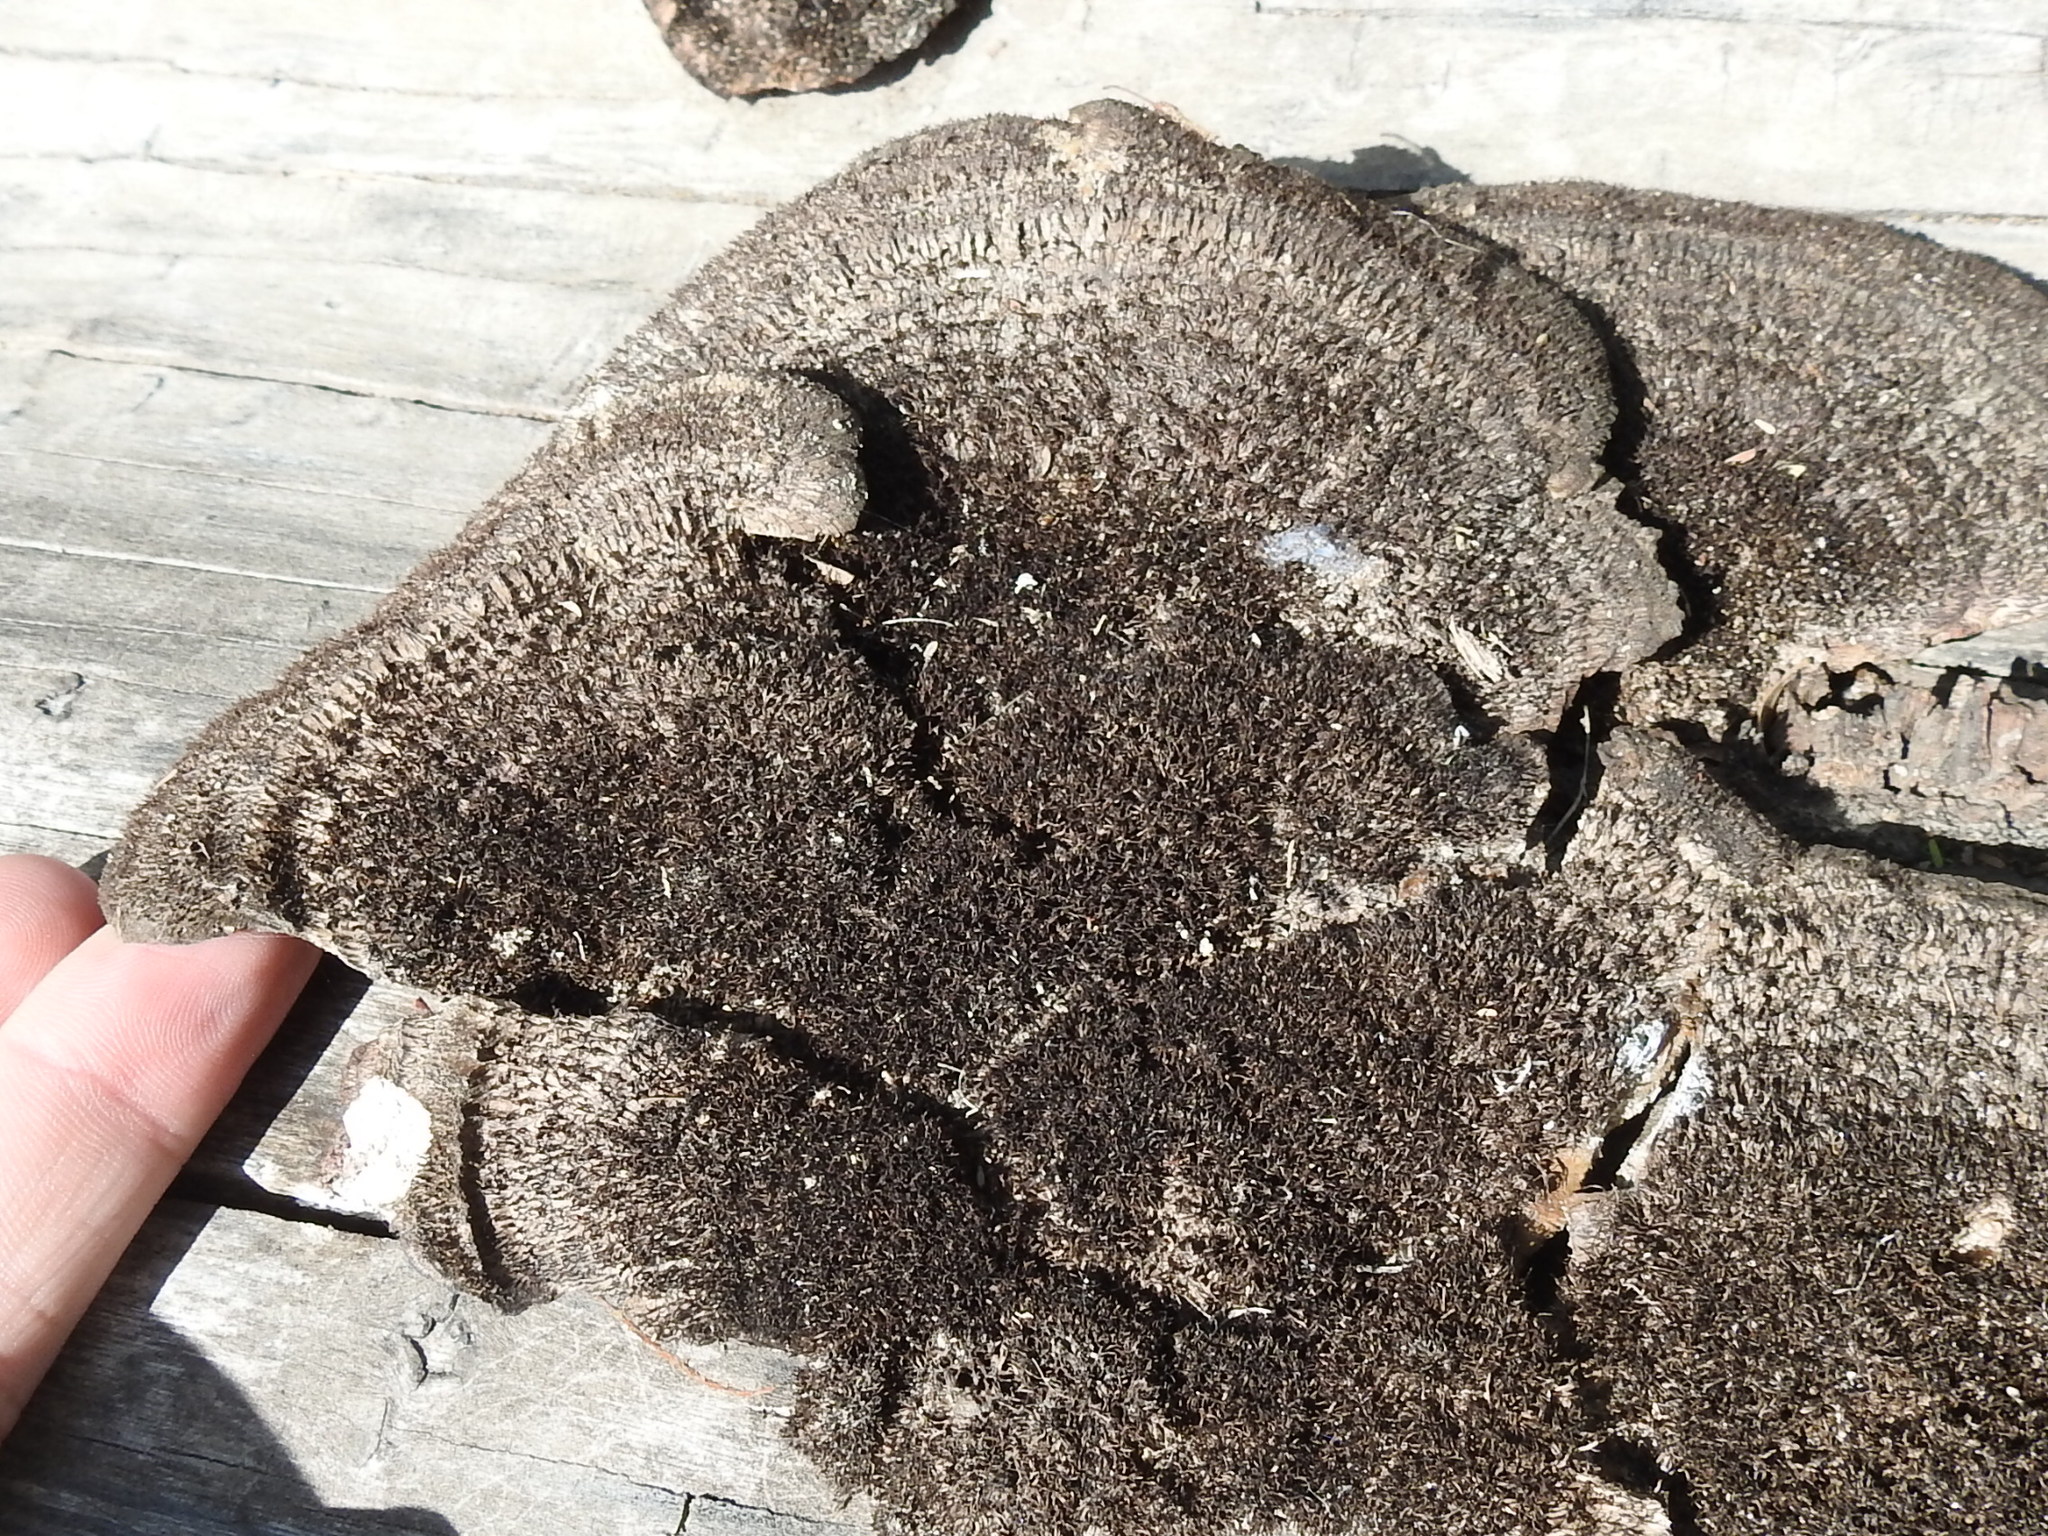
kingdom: Fungi
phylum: Basidiomycota
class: Agaricomycetes
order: Polyporales
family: Cerrenaceae
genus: Cerrena
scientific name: Cerrena hydnoides
